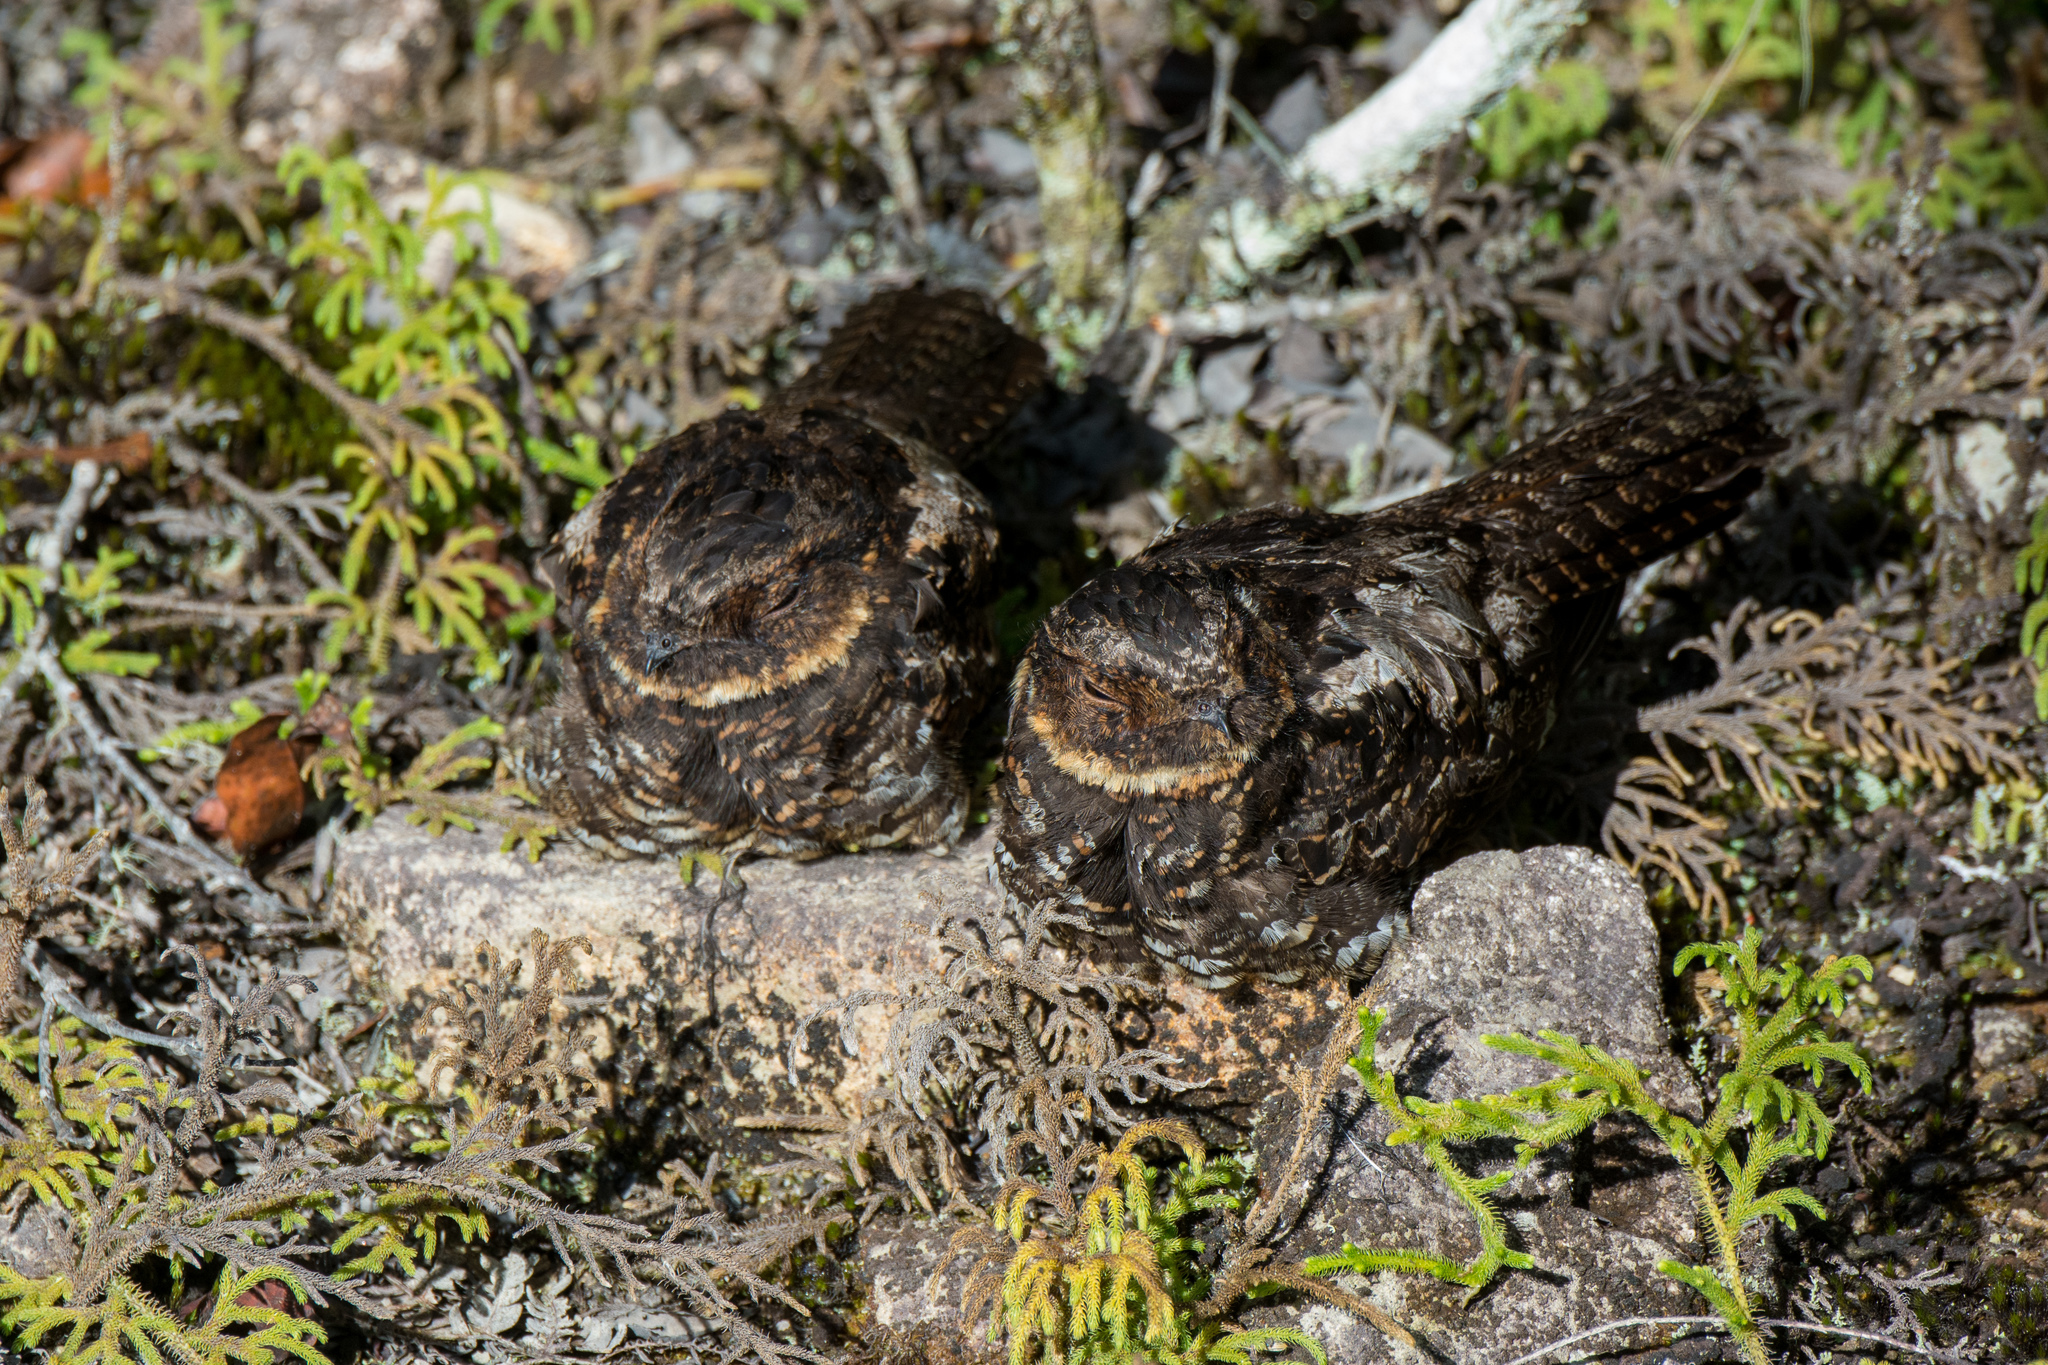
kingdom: Animalia
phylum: Chordata
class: Aves
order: Caprimulgiformes
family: Caprimulgidae
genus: Eurostopodus
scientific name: Eurostopodus diabolicus
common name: Satanic nightjar
